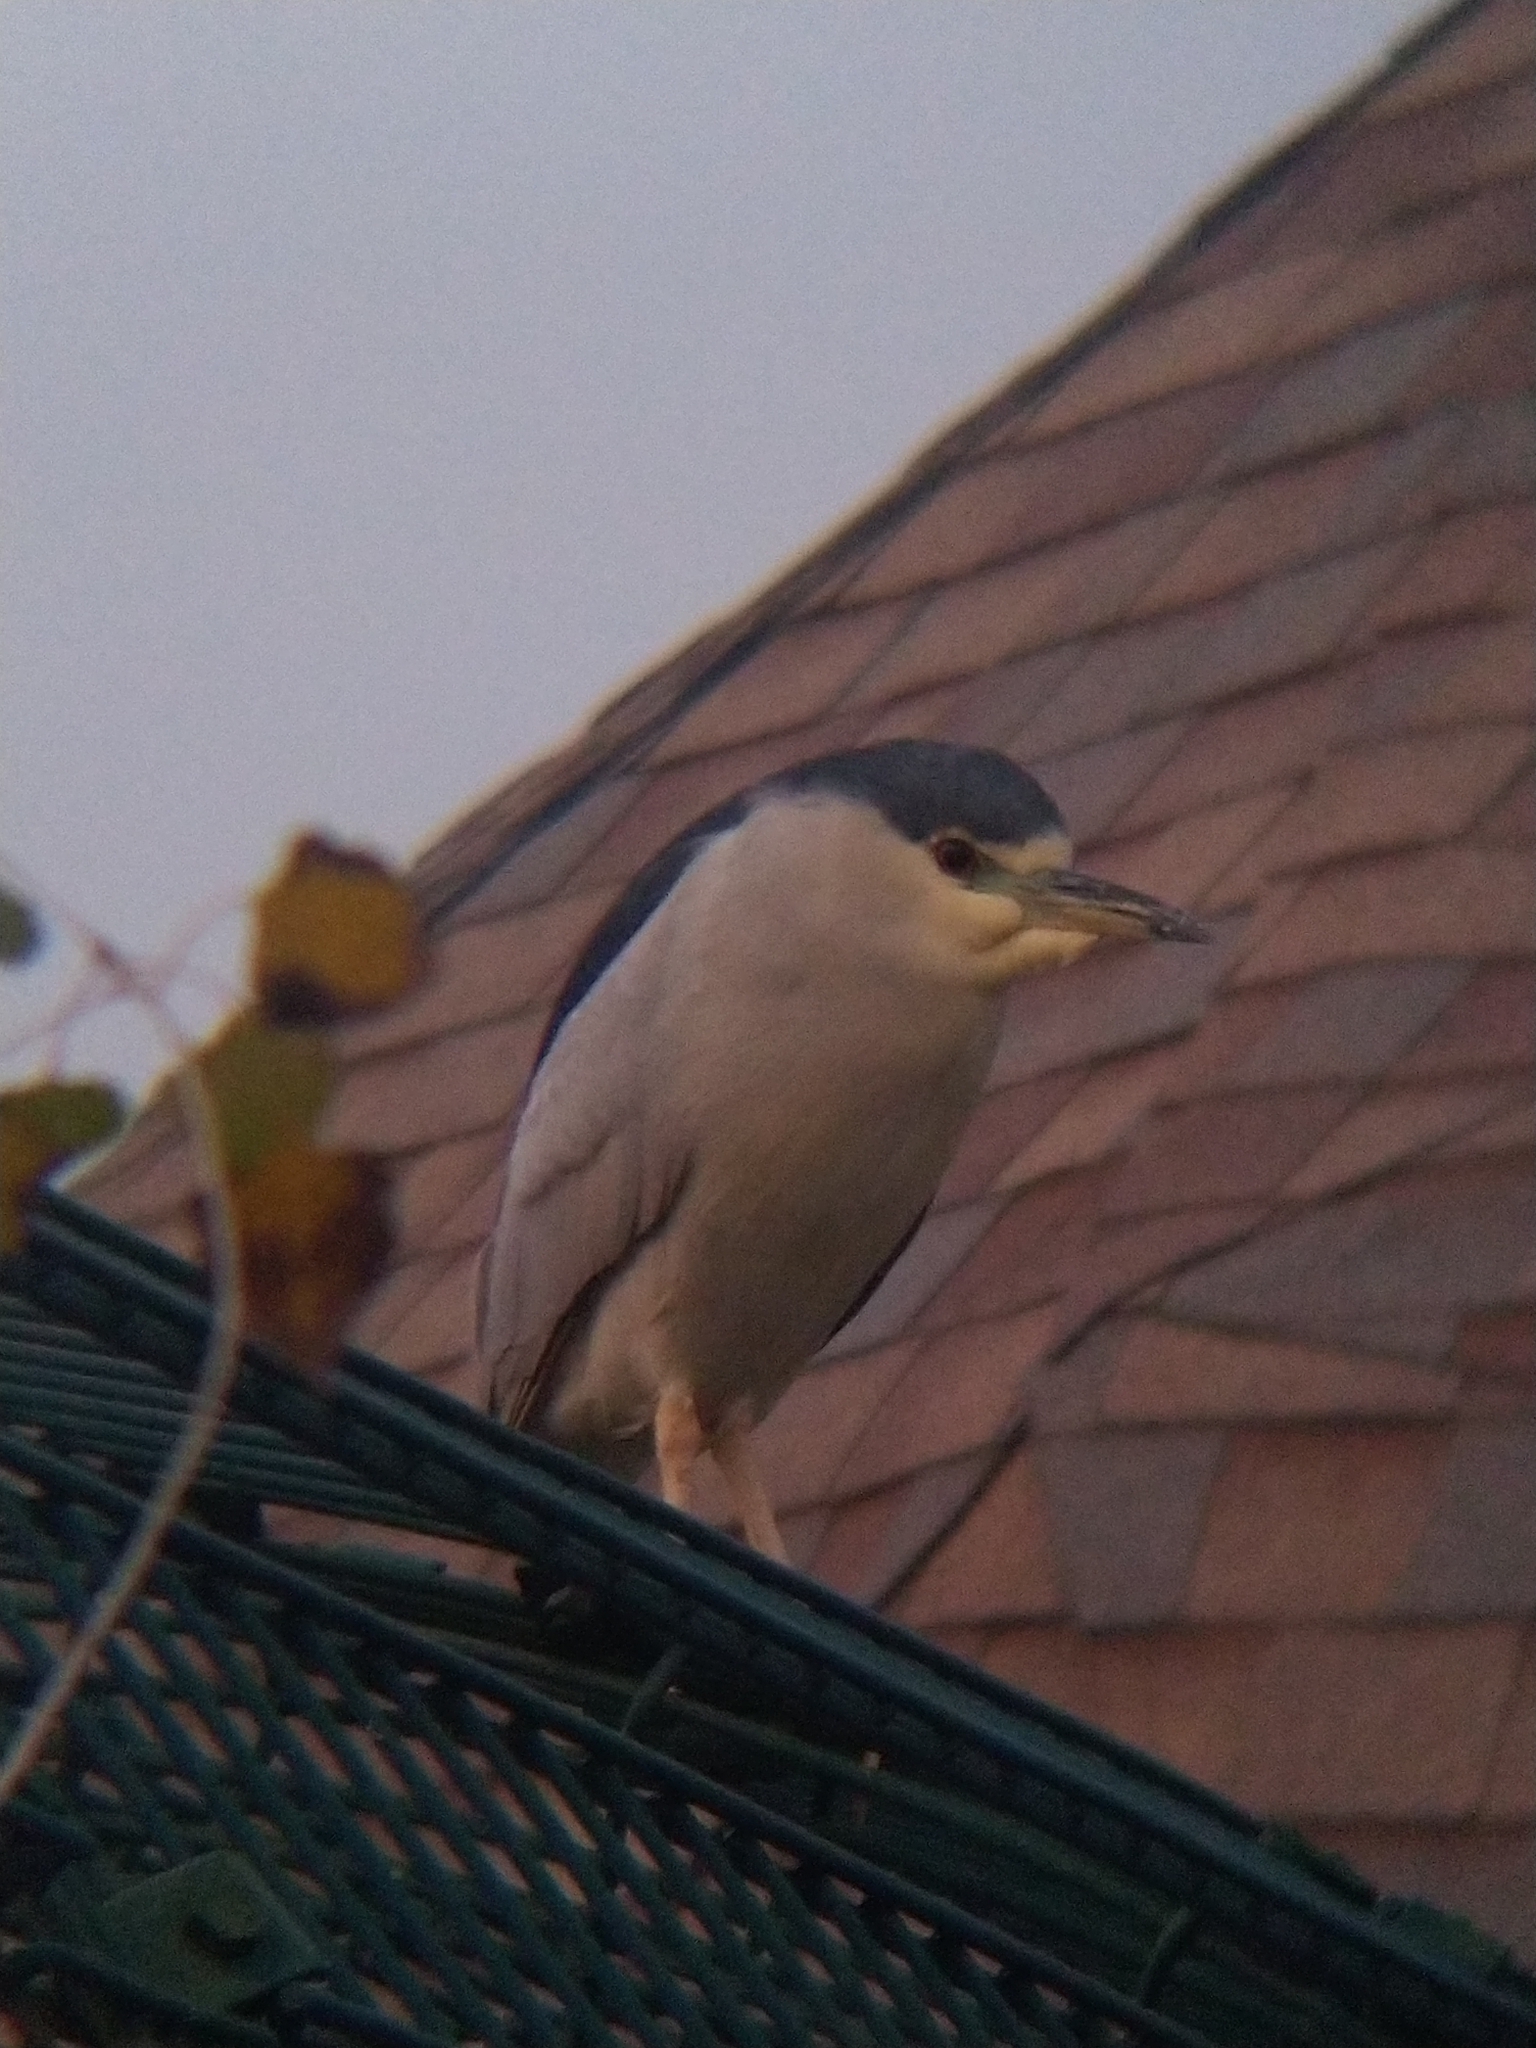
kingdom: Animalia
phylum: Chordata
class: Aves
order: Pelecaniformes
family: Ardeidae
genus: Nycticorax
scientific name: Nycticorax nycticorax
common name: Black-crowned night heron
